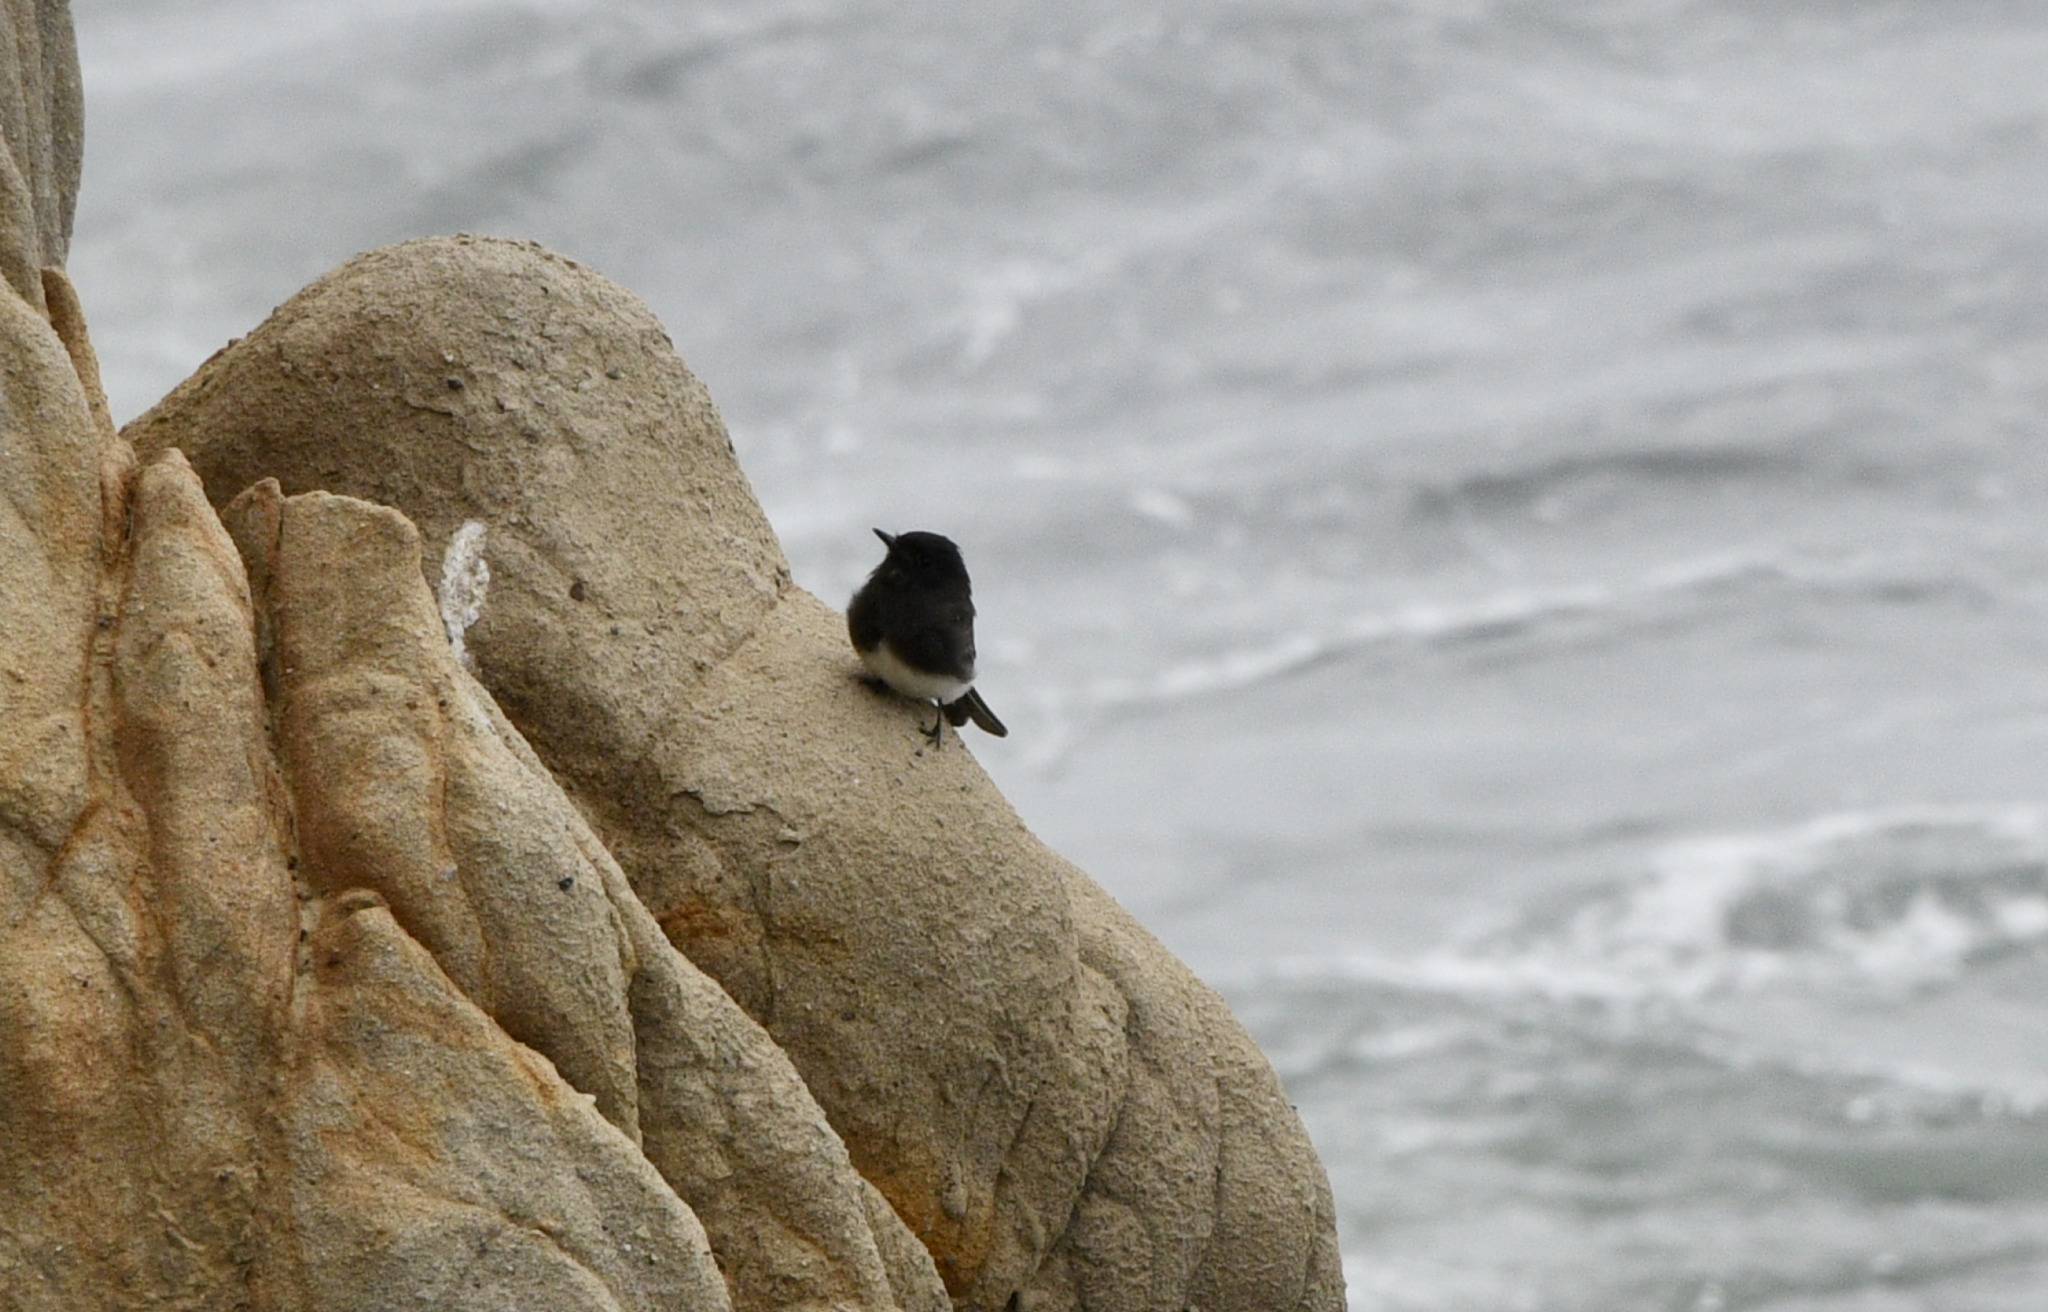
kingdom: Animalia
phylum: Chordata
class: Aves
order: Passeriformes
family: Tyrannidae
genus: Sayornis
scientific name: Sayornis nigricans
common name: Black phoebe
